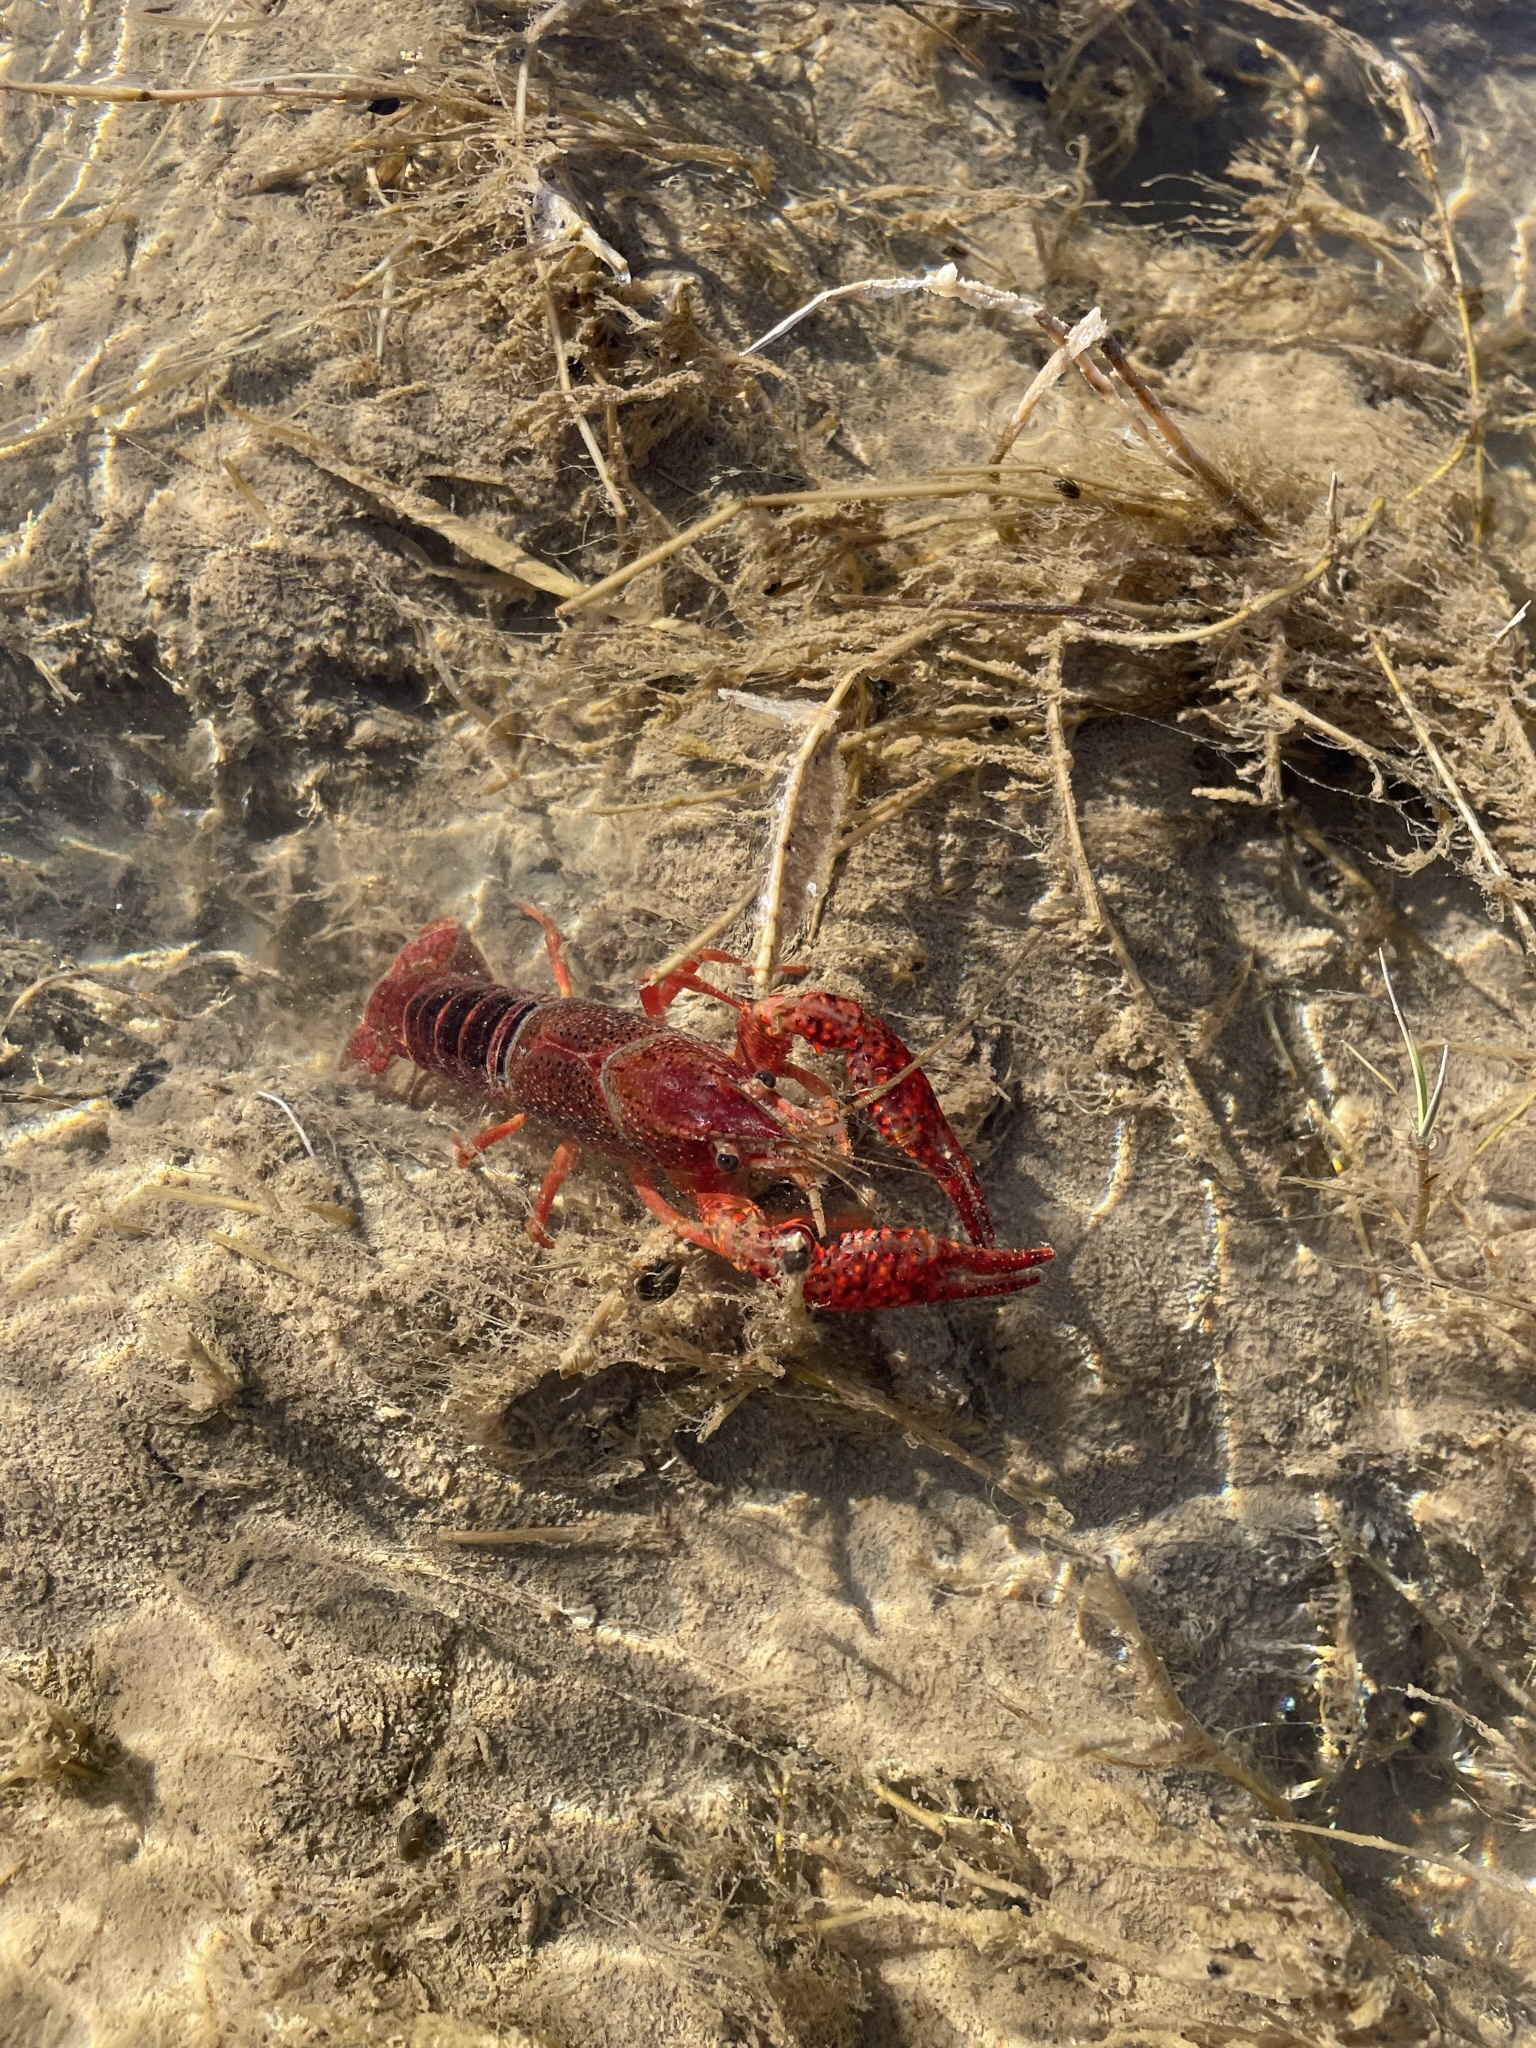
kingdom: Animalia
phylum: Arthropoda
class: Malacostraca
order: Decapoda
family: Cambaridae
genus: Procambarus
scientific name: Procambarus clarkii
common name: Red swamp crayfish
